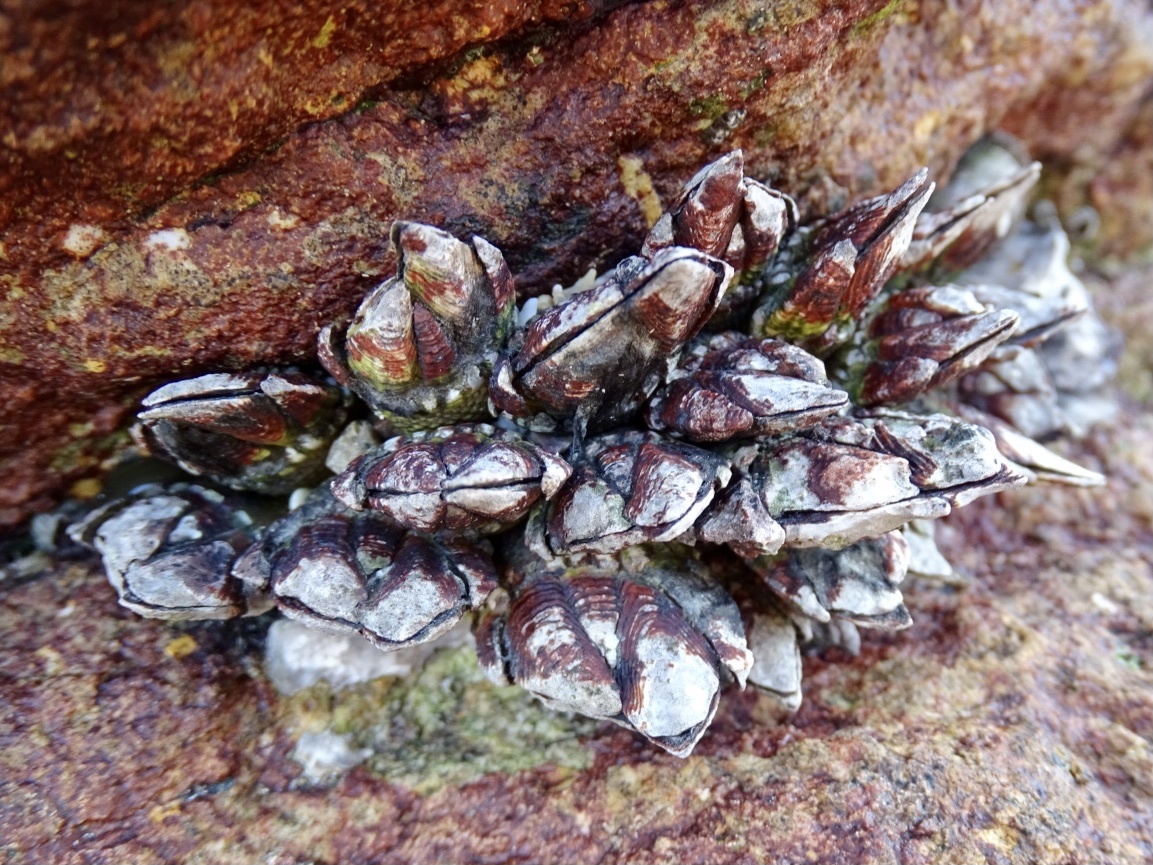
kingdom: Animalia
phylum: Arthropoda
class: Maxillopoda
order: Pedunculata
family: Pollicipedidae
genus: Capitulum
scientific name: Capitulum mitella
